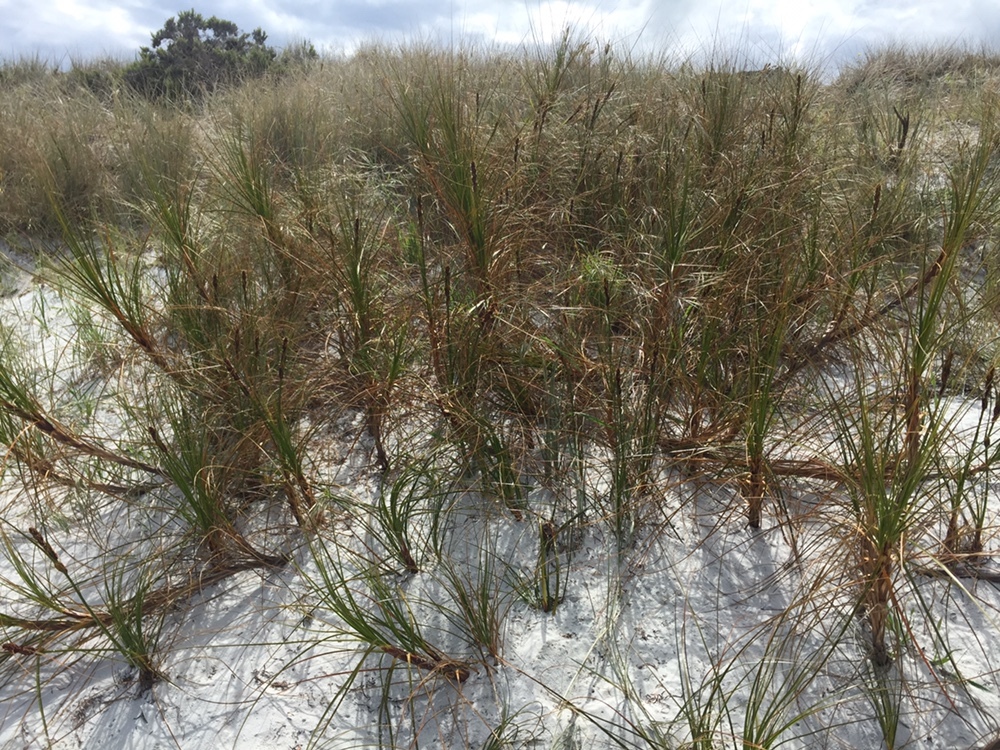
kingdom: Plantae
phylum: Tracheophyta
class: Liliopsida
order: Poales
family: Cyperaceae
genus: Ficinia
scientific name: Ficinia spiralis
